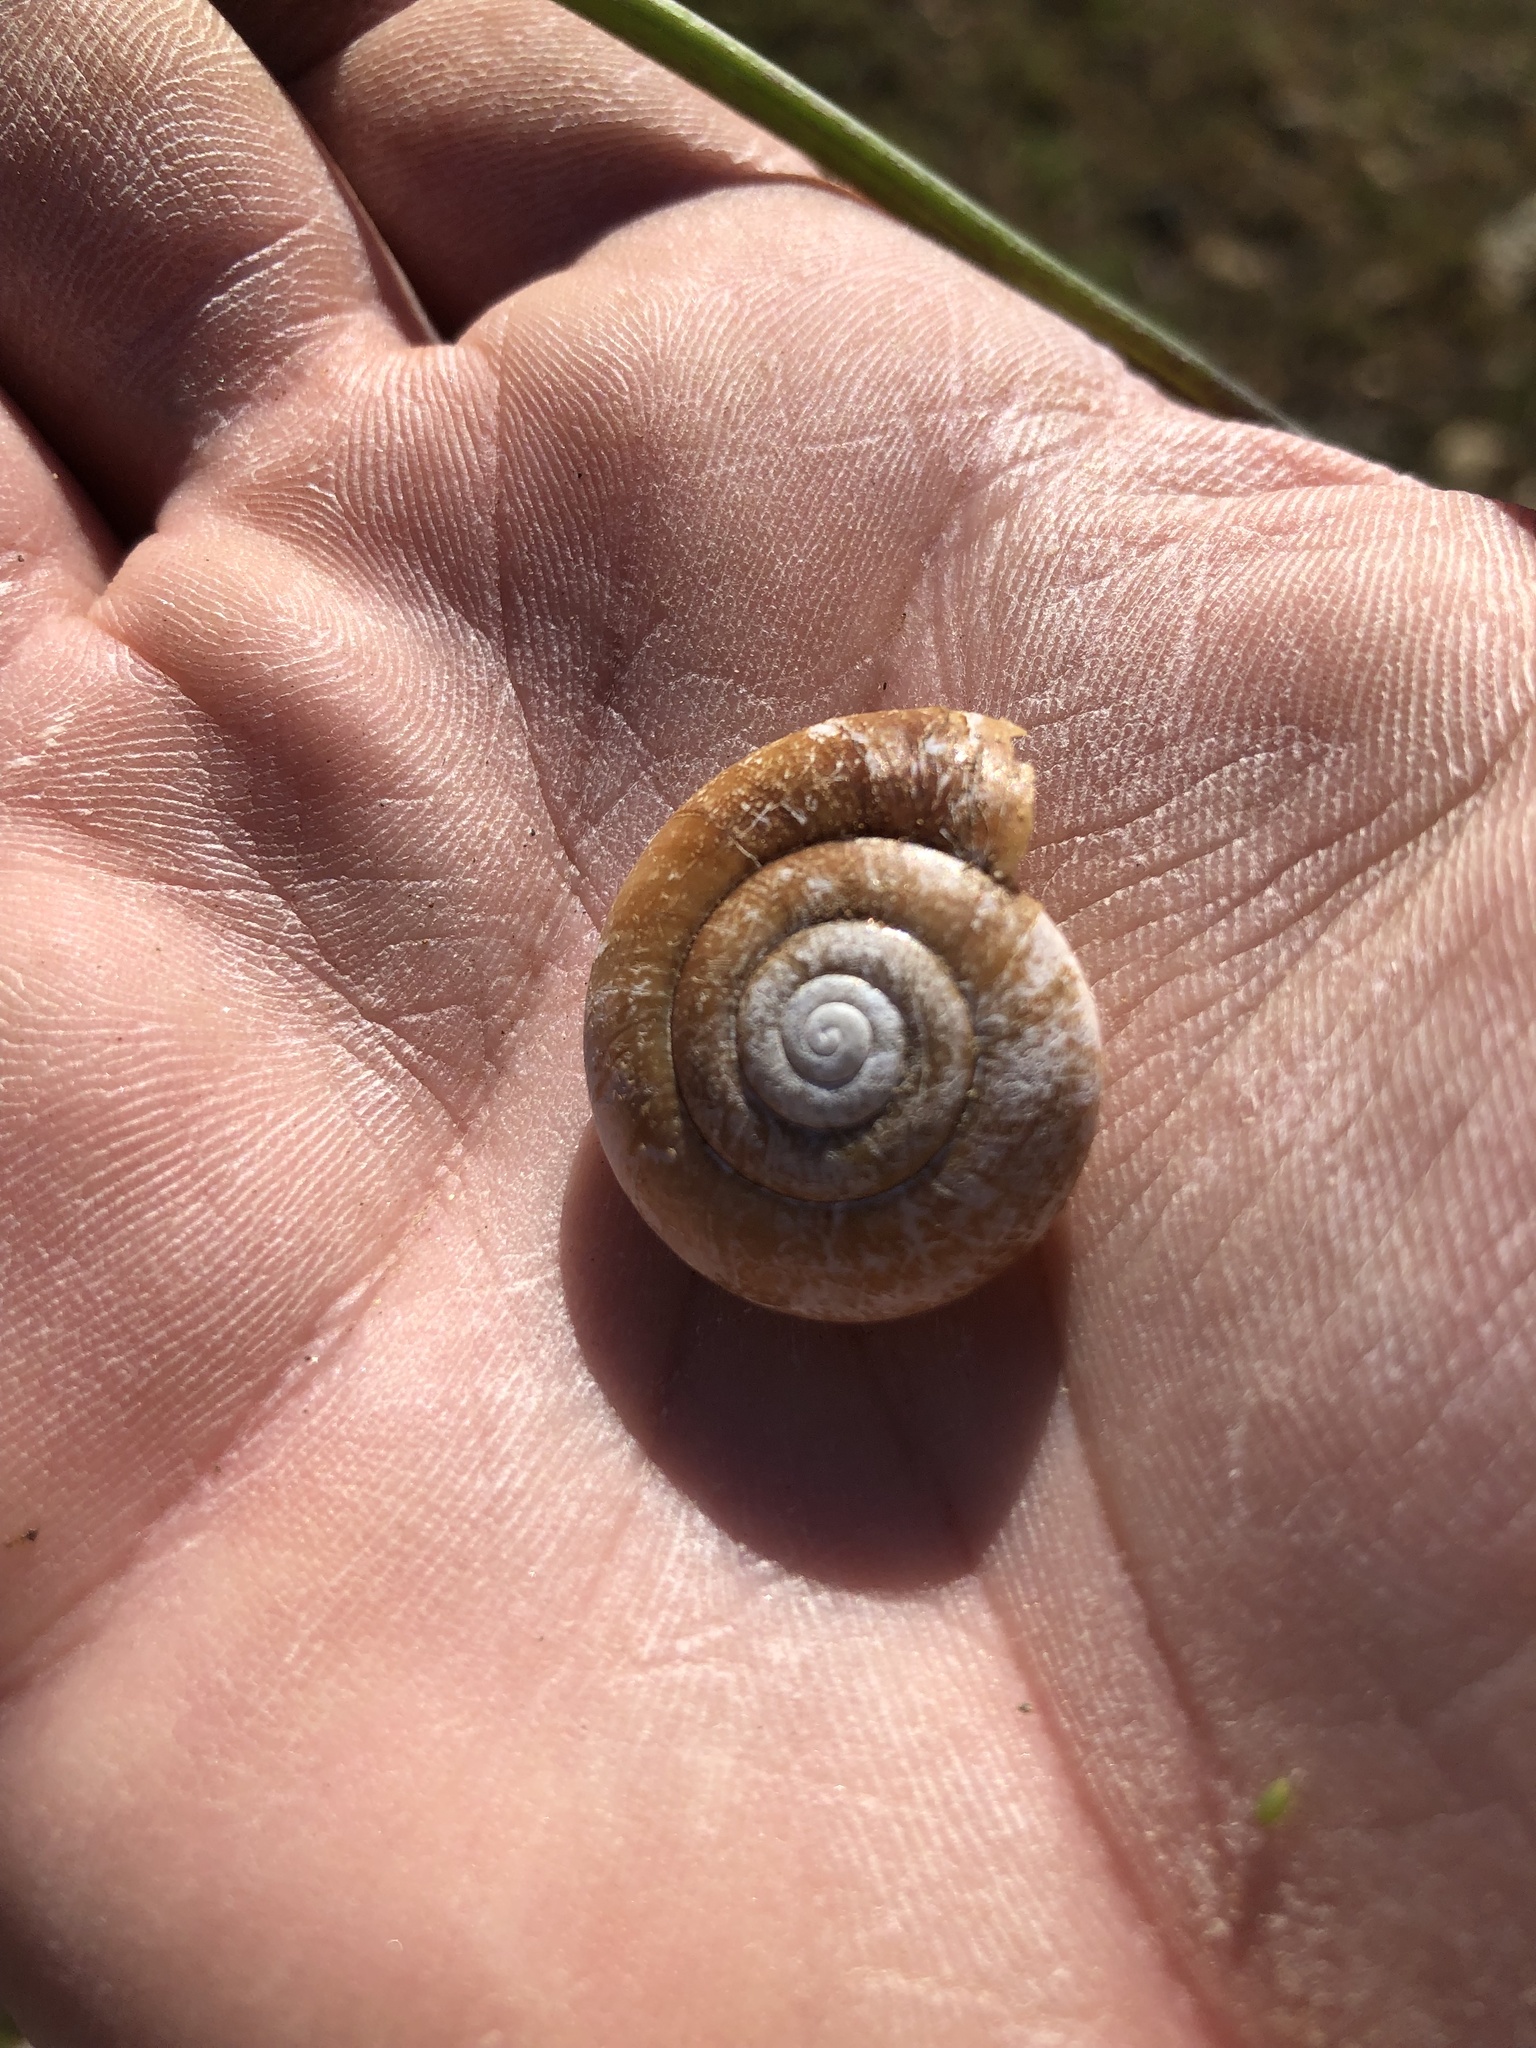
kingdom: Animalia
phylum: Mollusca
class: Gastropoda
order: Stylommatophora
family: Megomphicidae
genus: Glyptostoma
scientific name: Glyptostoma gabrielense
